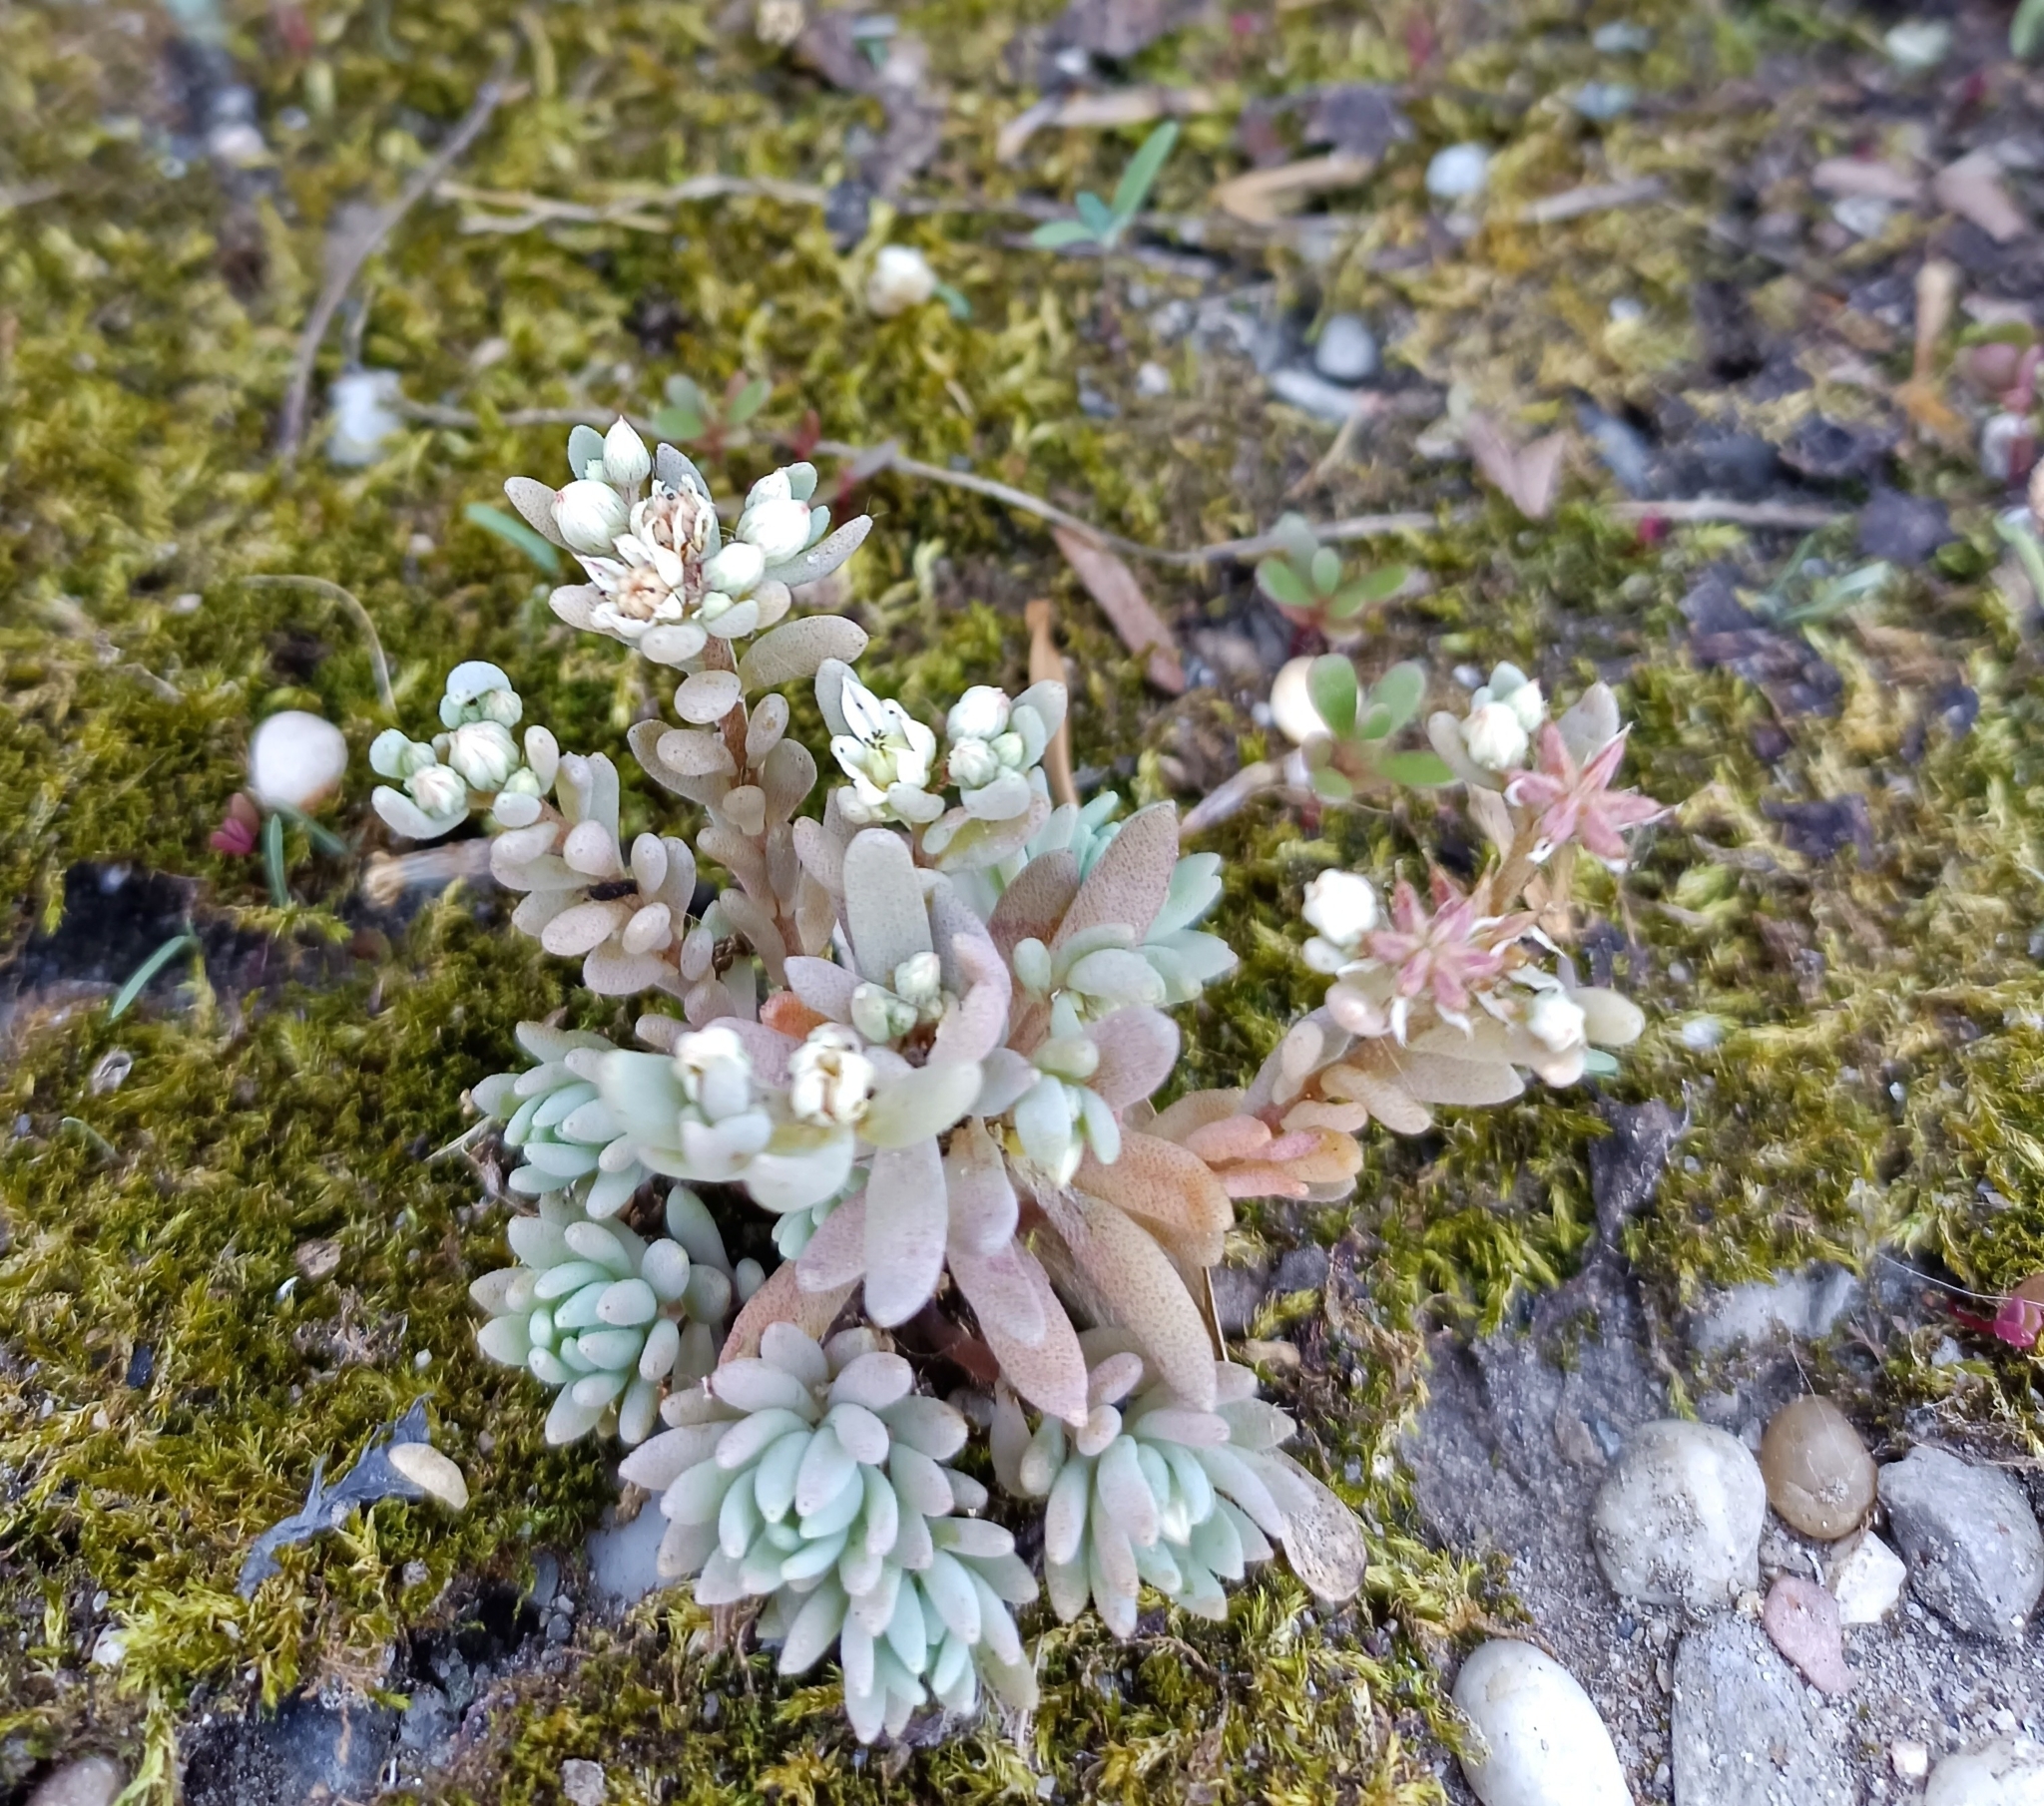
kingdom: Plantae
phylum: Tracheophyta
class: Magnoliopsida
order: Saxifragales
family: Crassulaceae
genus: Sedum
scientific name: Sedum hispanicum
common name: Spanish stonecrop
